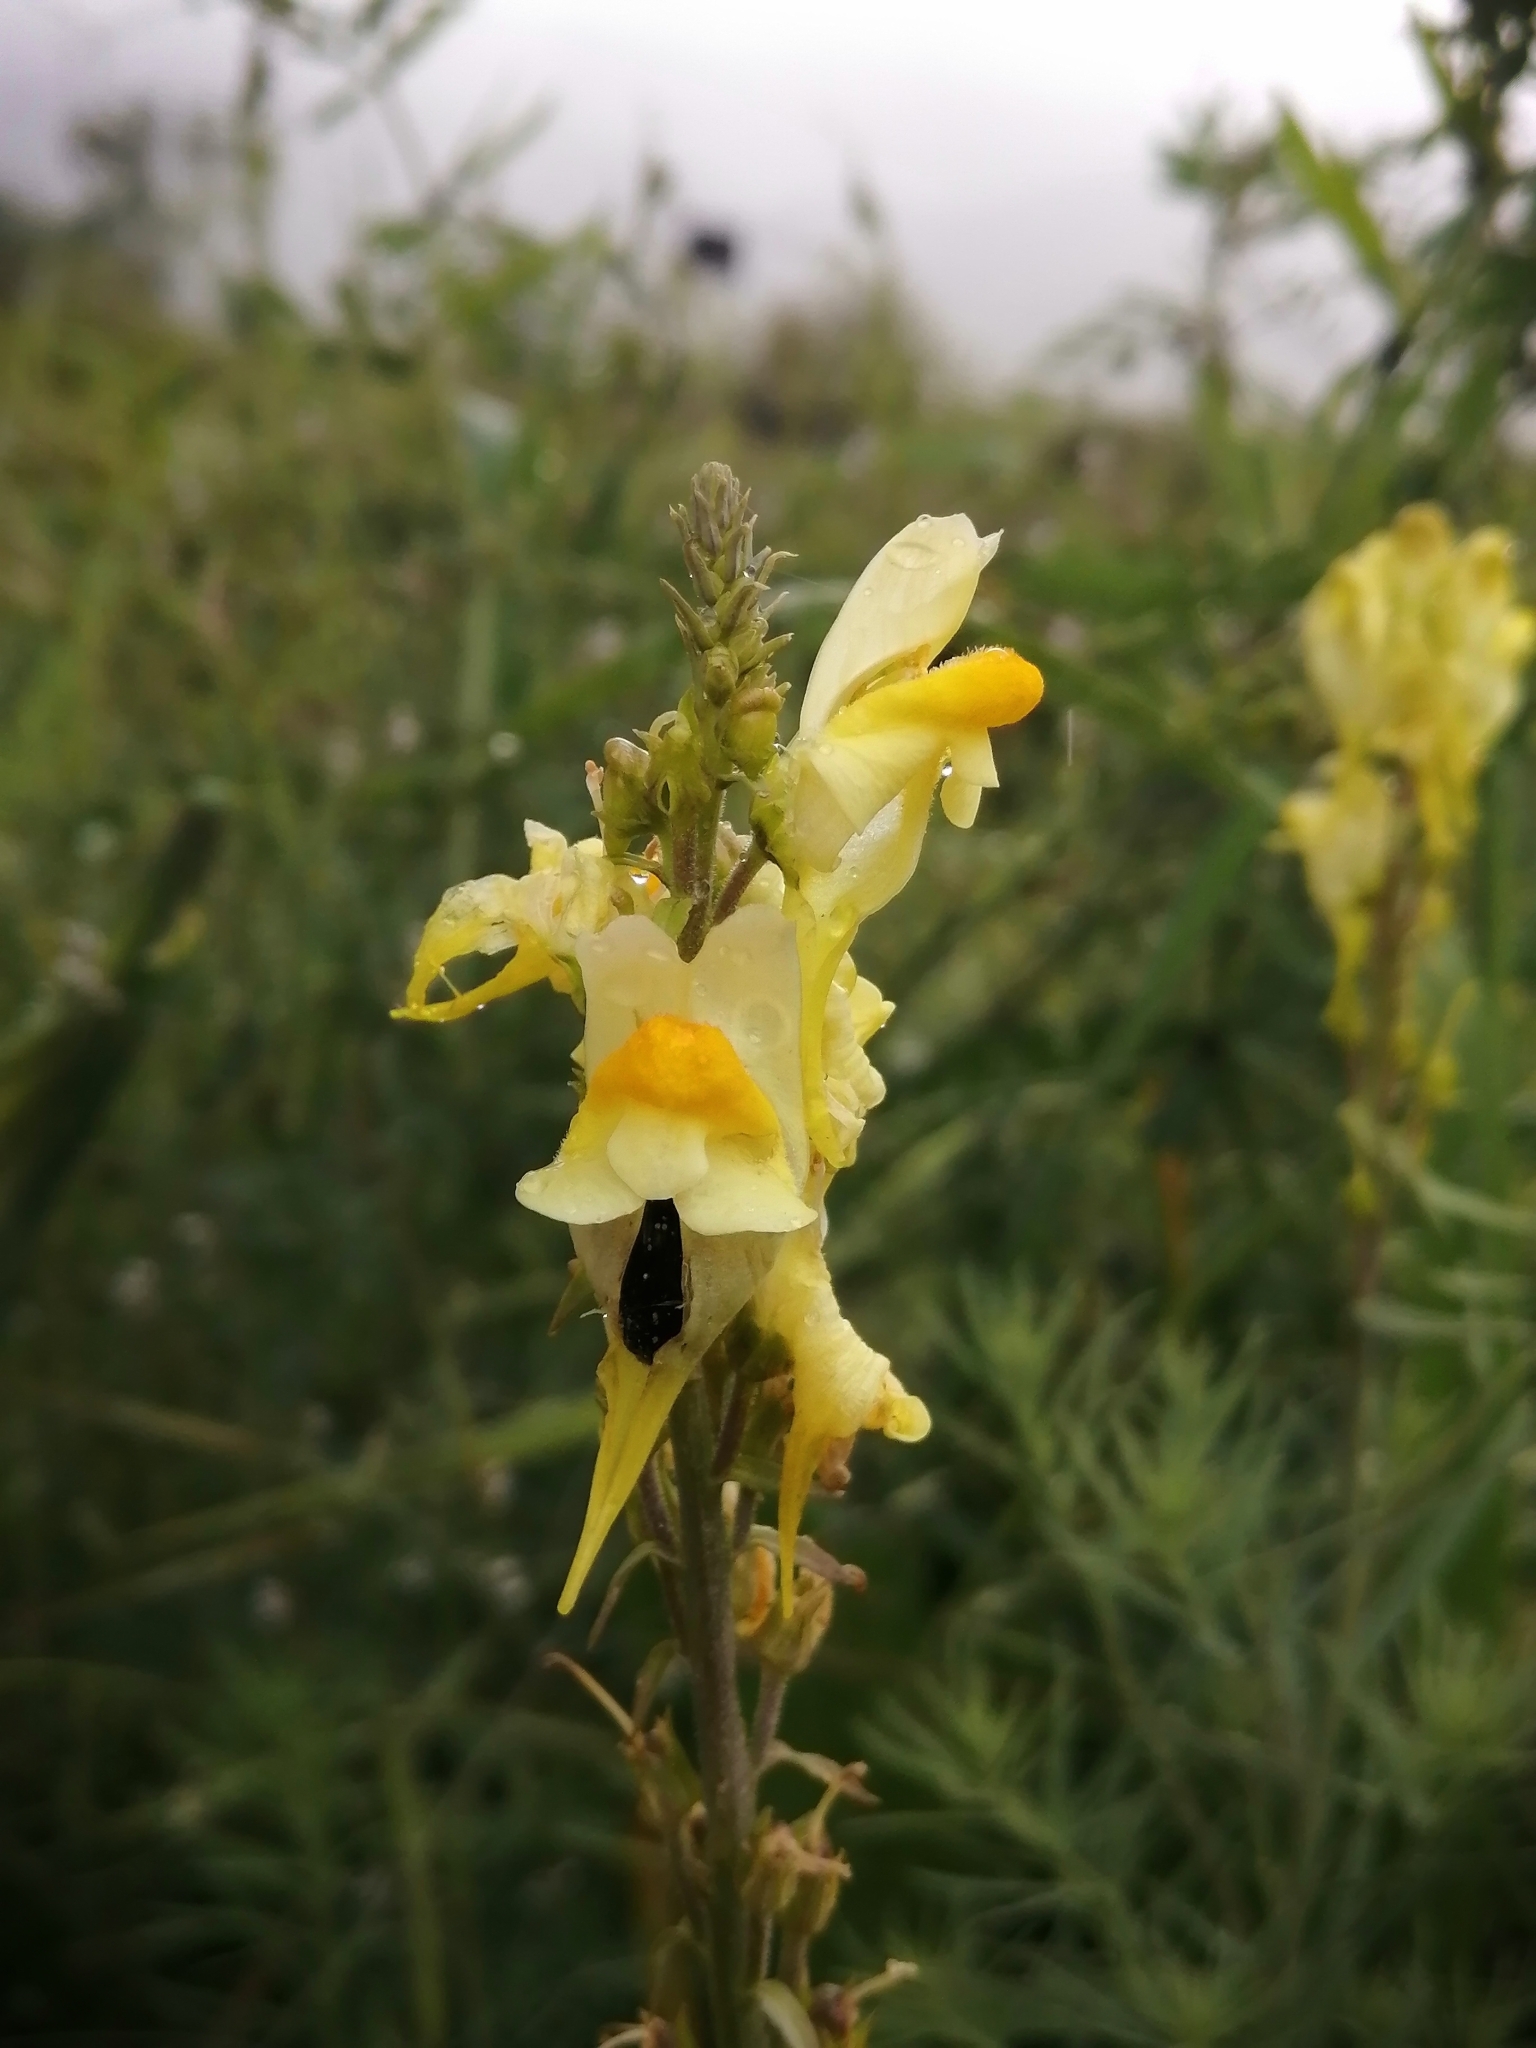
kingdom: Plantae
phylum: Tracheophyta
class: Magnoliopsida
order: Lamiales
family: Plantaginaceae
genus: Linaria
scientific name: Linaria vulgaris
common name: Butter and eggs
